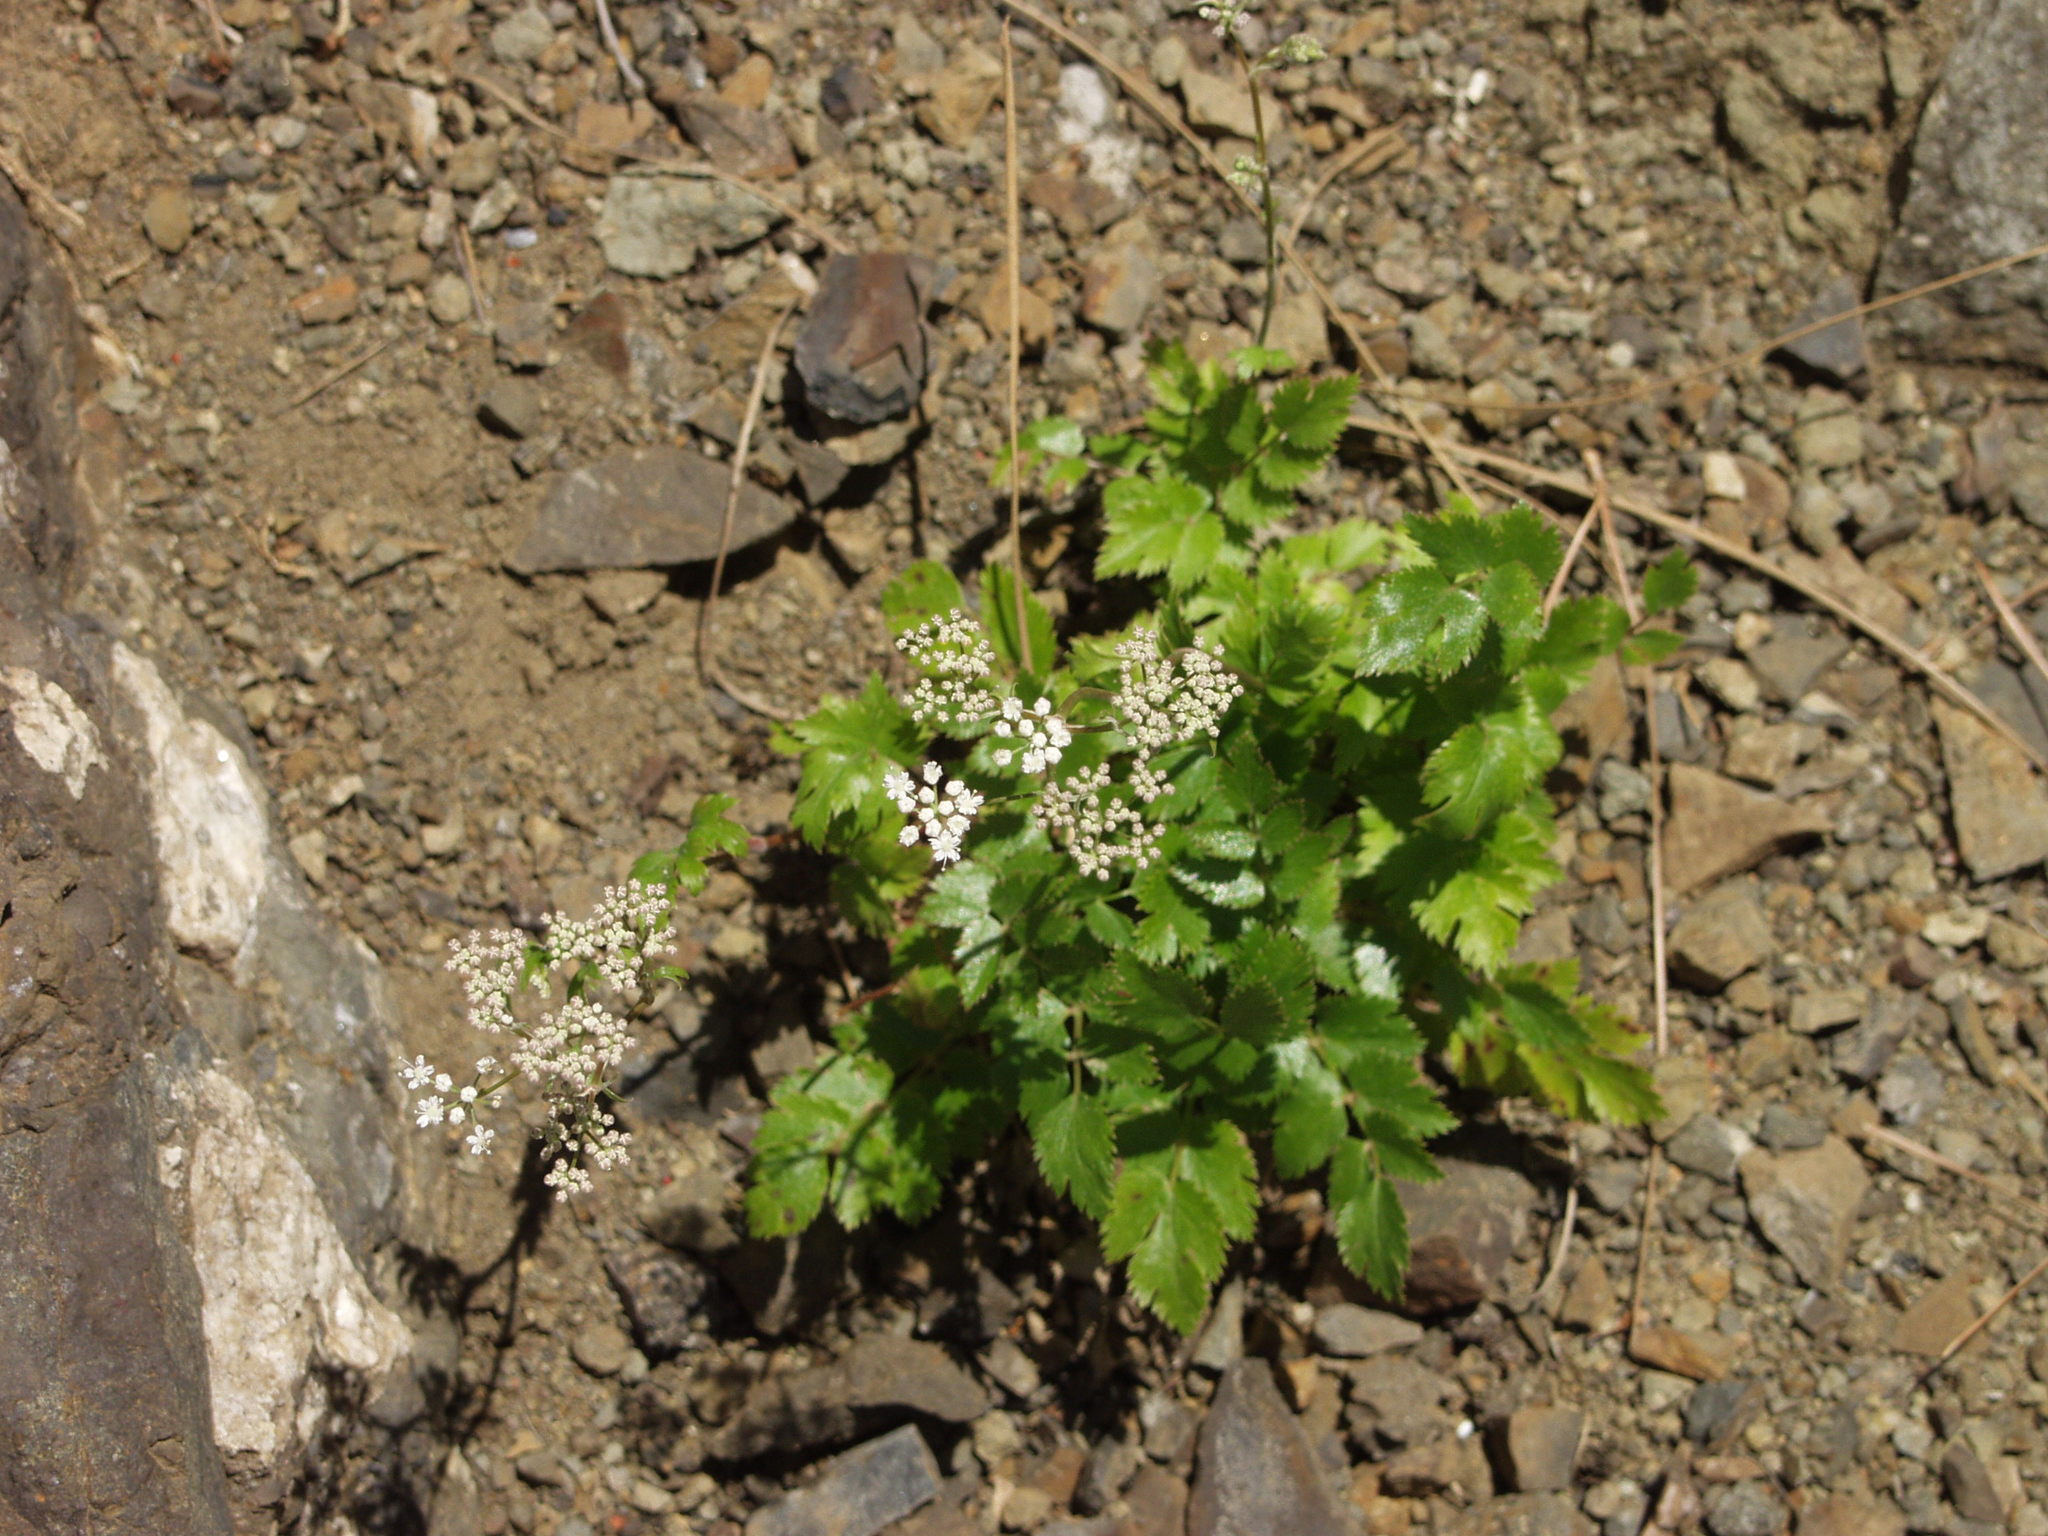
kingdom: Plantae
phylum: Tracheophyta
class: Magnoliopsida
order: Apiales
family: Apiaceae
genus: Pimpinella
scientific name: Pimpinella dendroselinum
